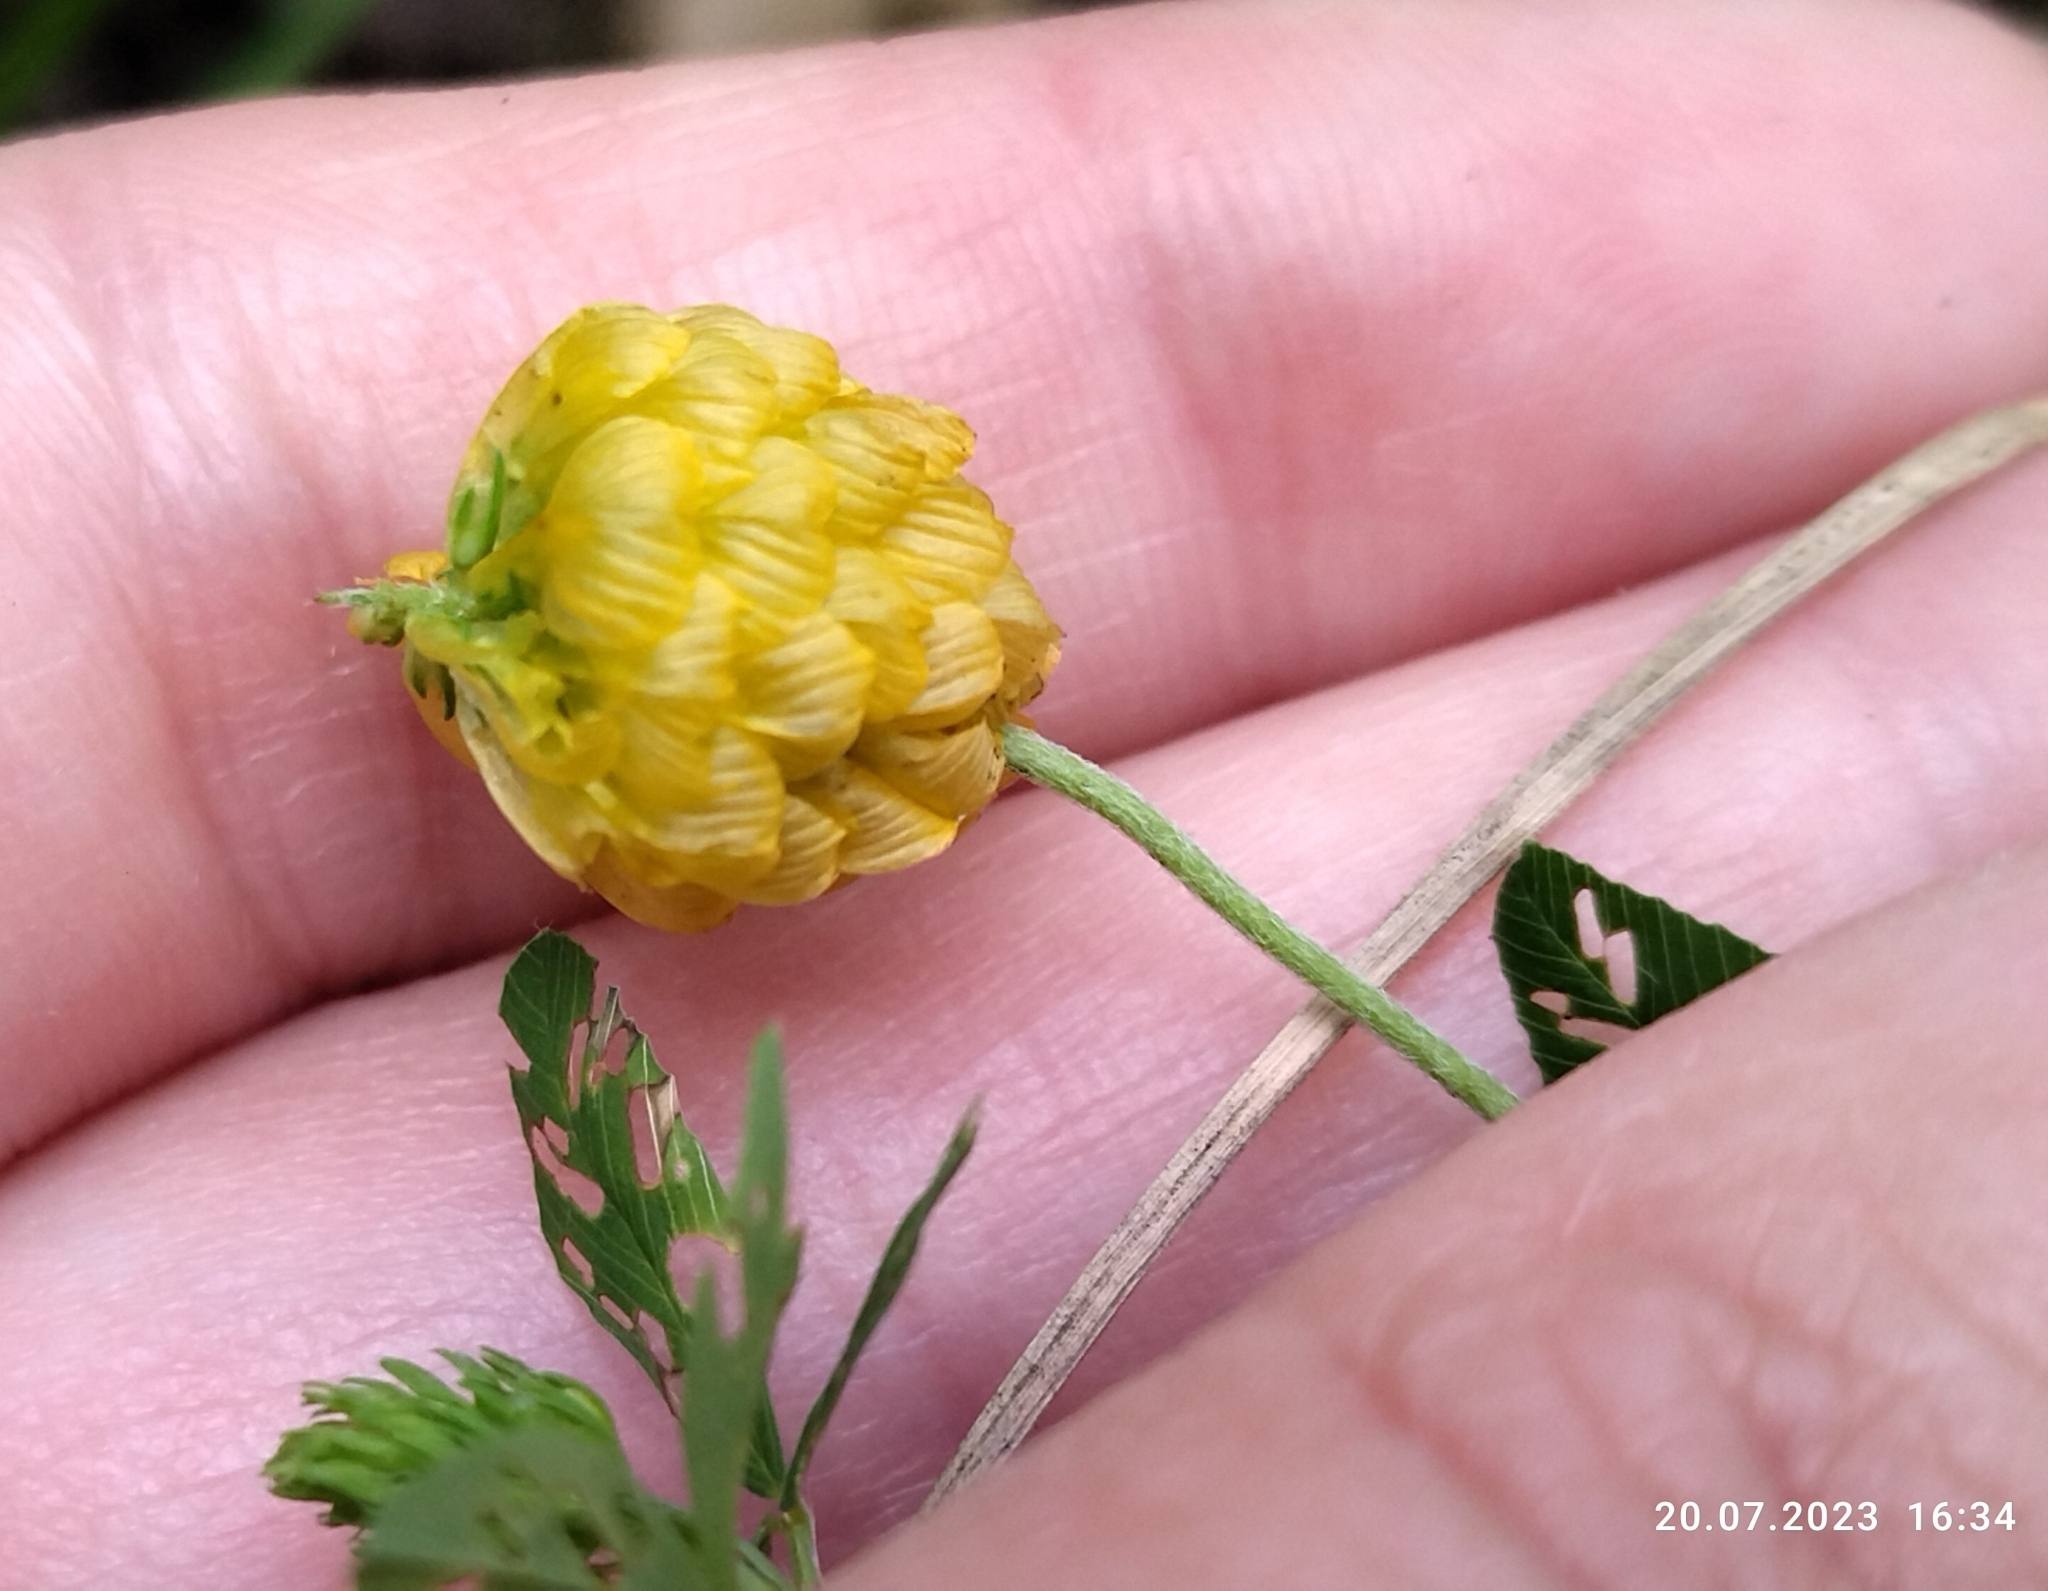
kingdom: Plantae
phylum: Tracheophyta
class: Magnoliopsida
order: Fabales
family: Fabaceae
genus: Trifolium
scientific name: Trifolium aureum
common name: Golden clover
